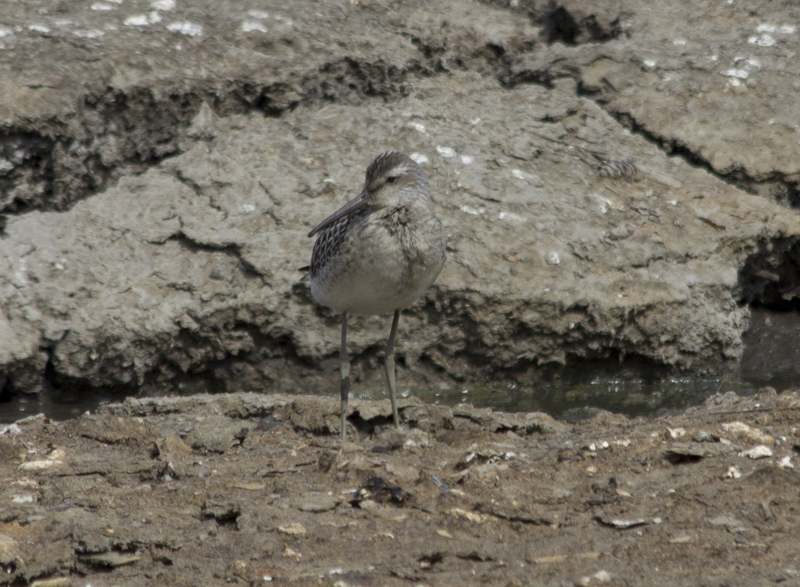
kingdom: Animalia
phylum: Chordata
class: Aves
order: Charadriiformes
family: Scolopacidae
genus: Calidris
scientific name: Calidris himantopus
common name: Stilt sandpiper
